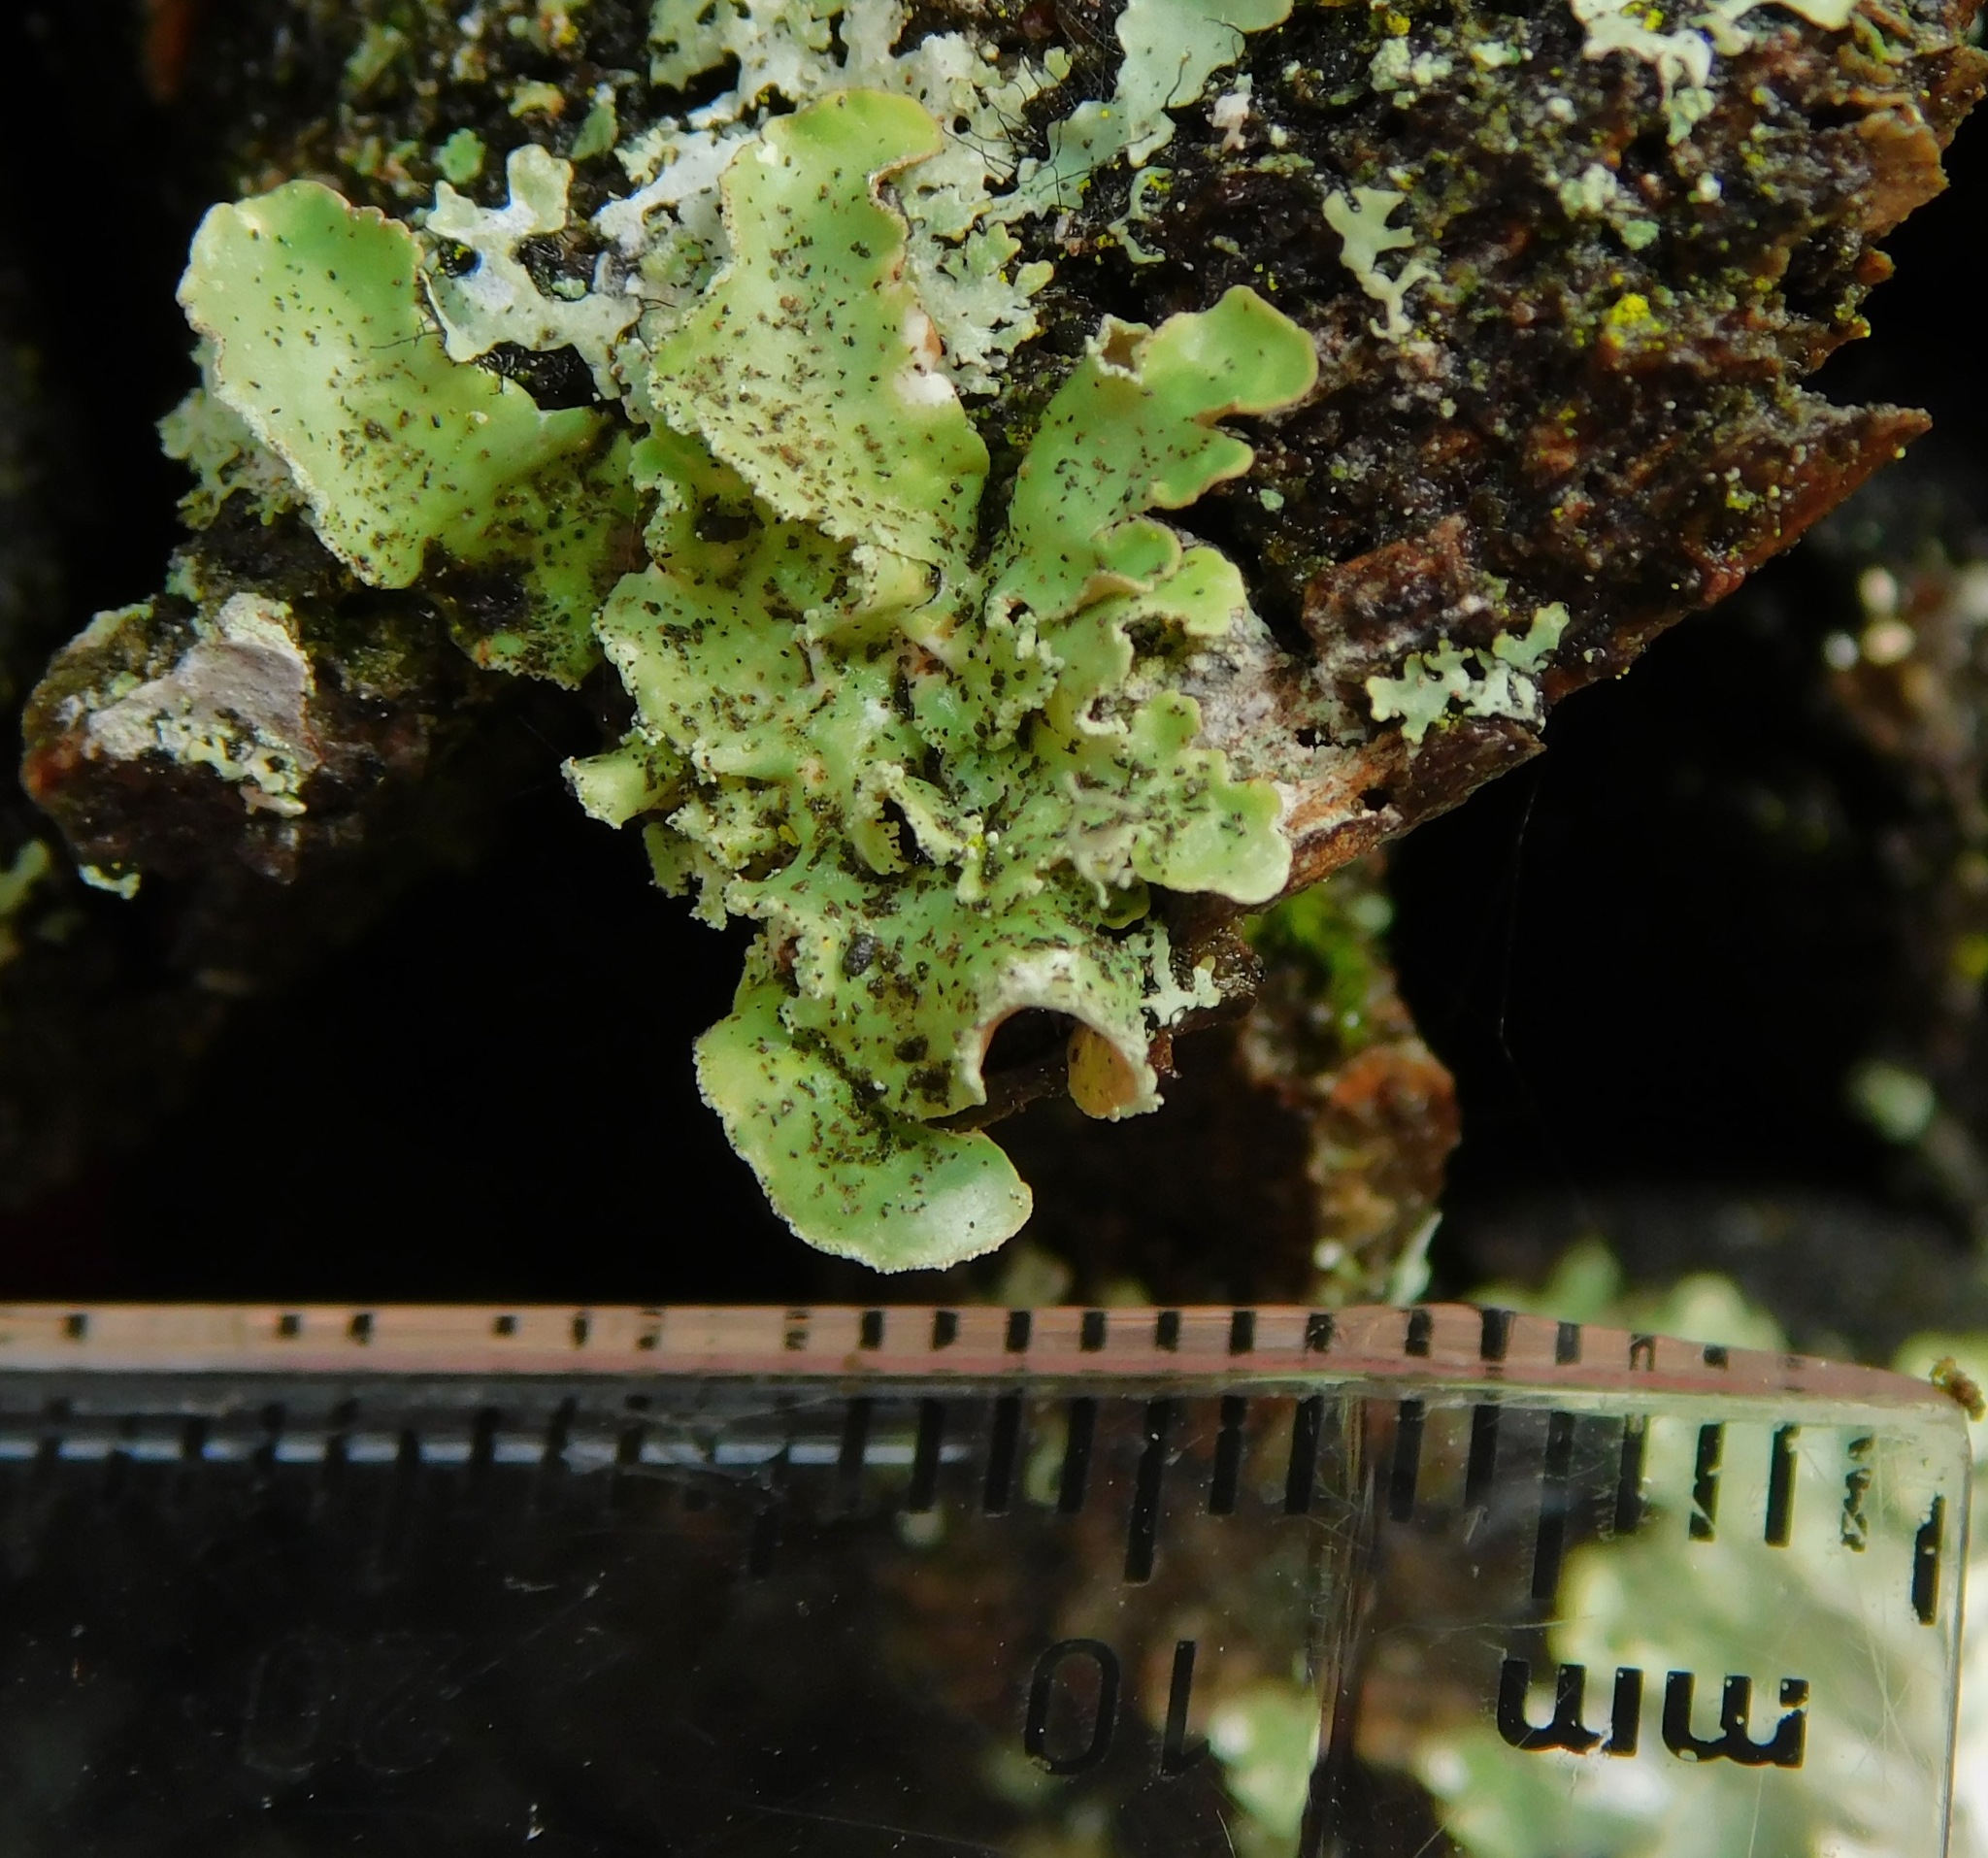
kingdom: Fungi
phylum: Ascomycota
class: Lecanoromycetes
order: Lecanorales
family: Parmeliaceae
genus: Usnocetraria
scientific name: Usnocetraria oakesiana
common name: Yellow ribbon lichen
